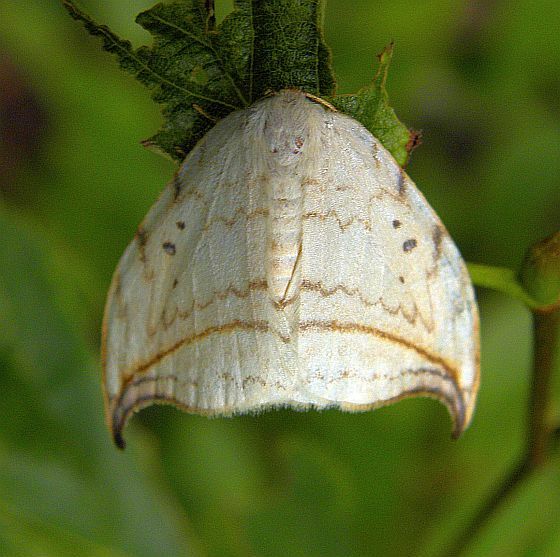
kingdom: Animalia
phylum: Arthropoda
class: Insecta
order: Lepidoptera
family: Drepanidae
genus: Drepana
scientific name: Drepana arcuata
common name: Arched hooktip moth
